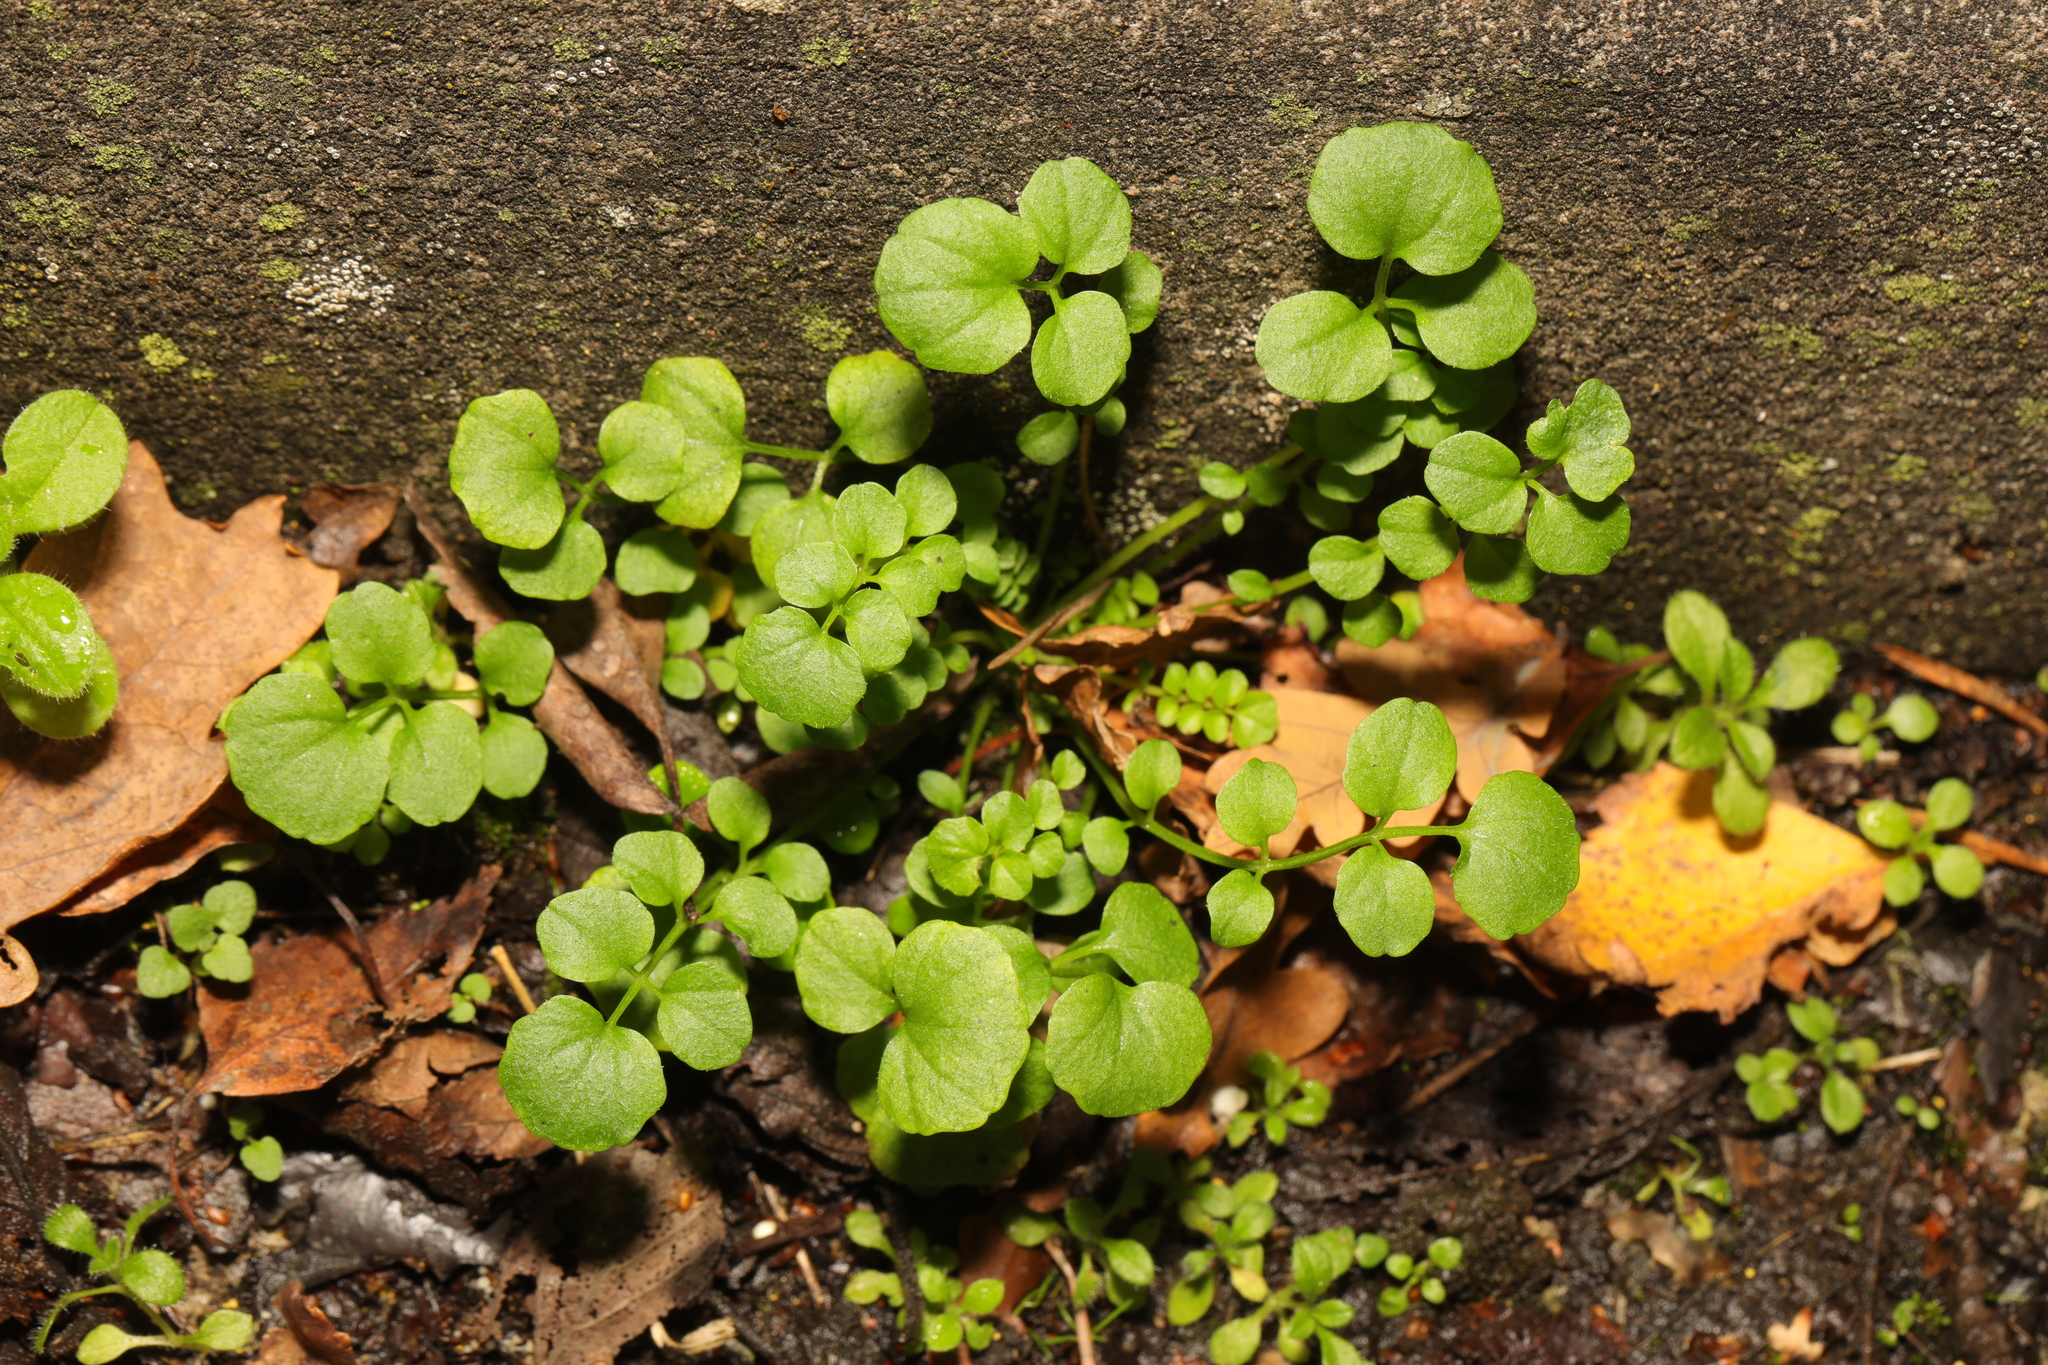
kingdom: Plantae
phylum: Tracheophyta
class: Magnoliopsida
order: Brassicales
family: Brassicaceae
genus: Cardamine
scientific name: Cardamine hirsuta
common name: Hairy bittercress
